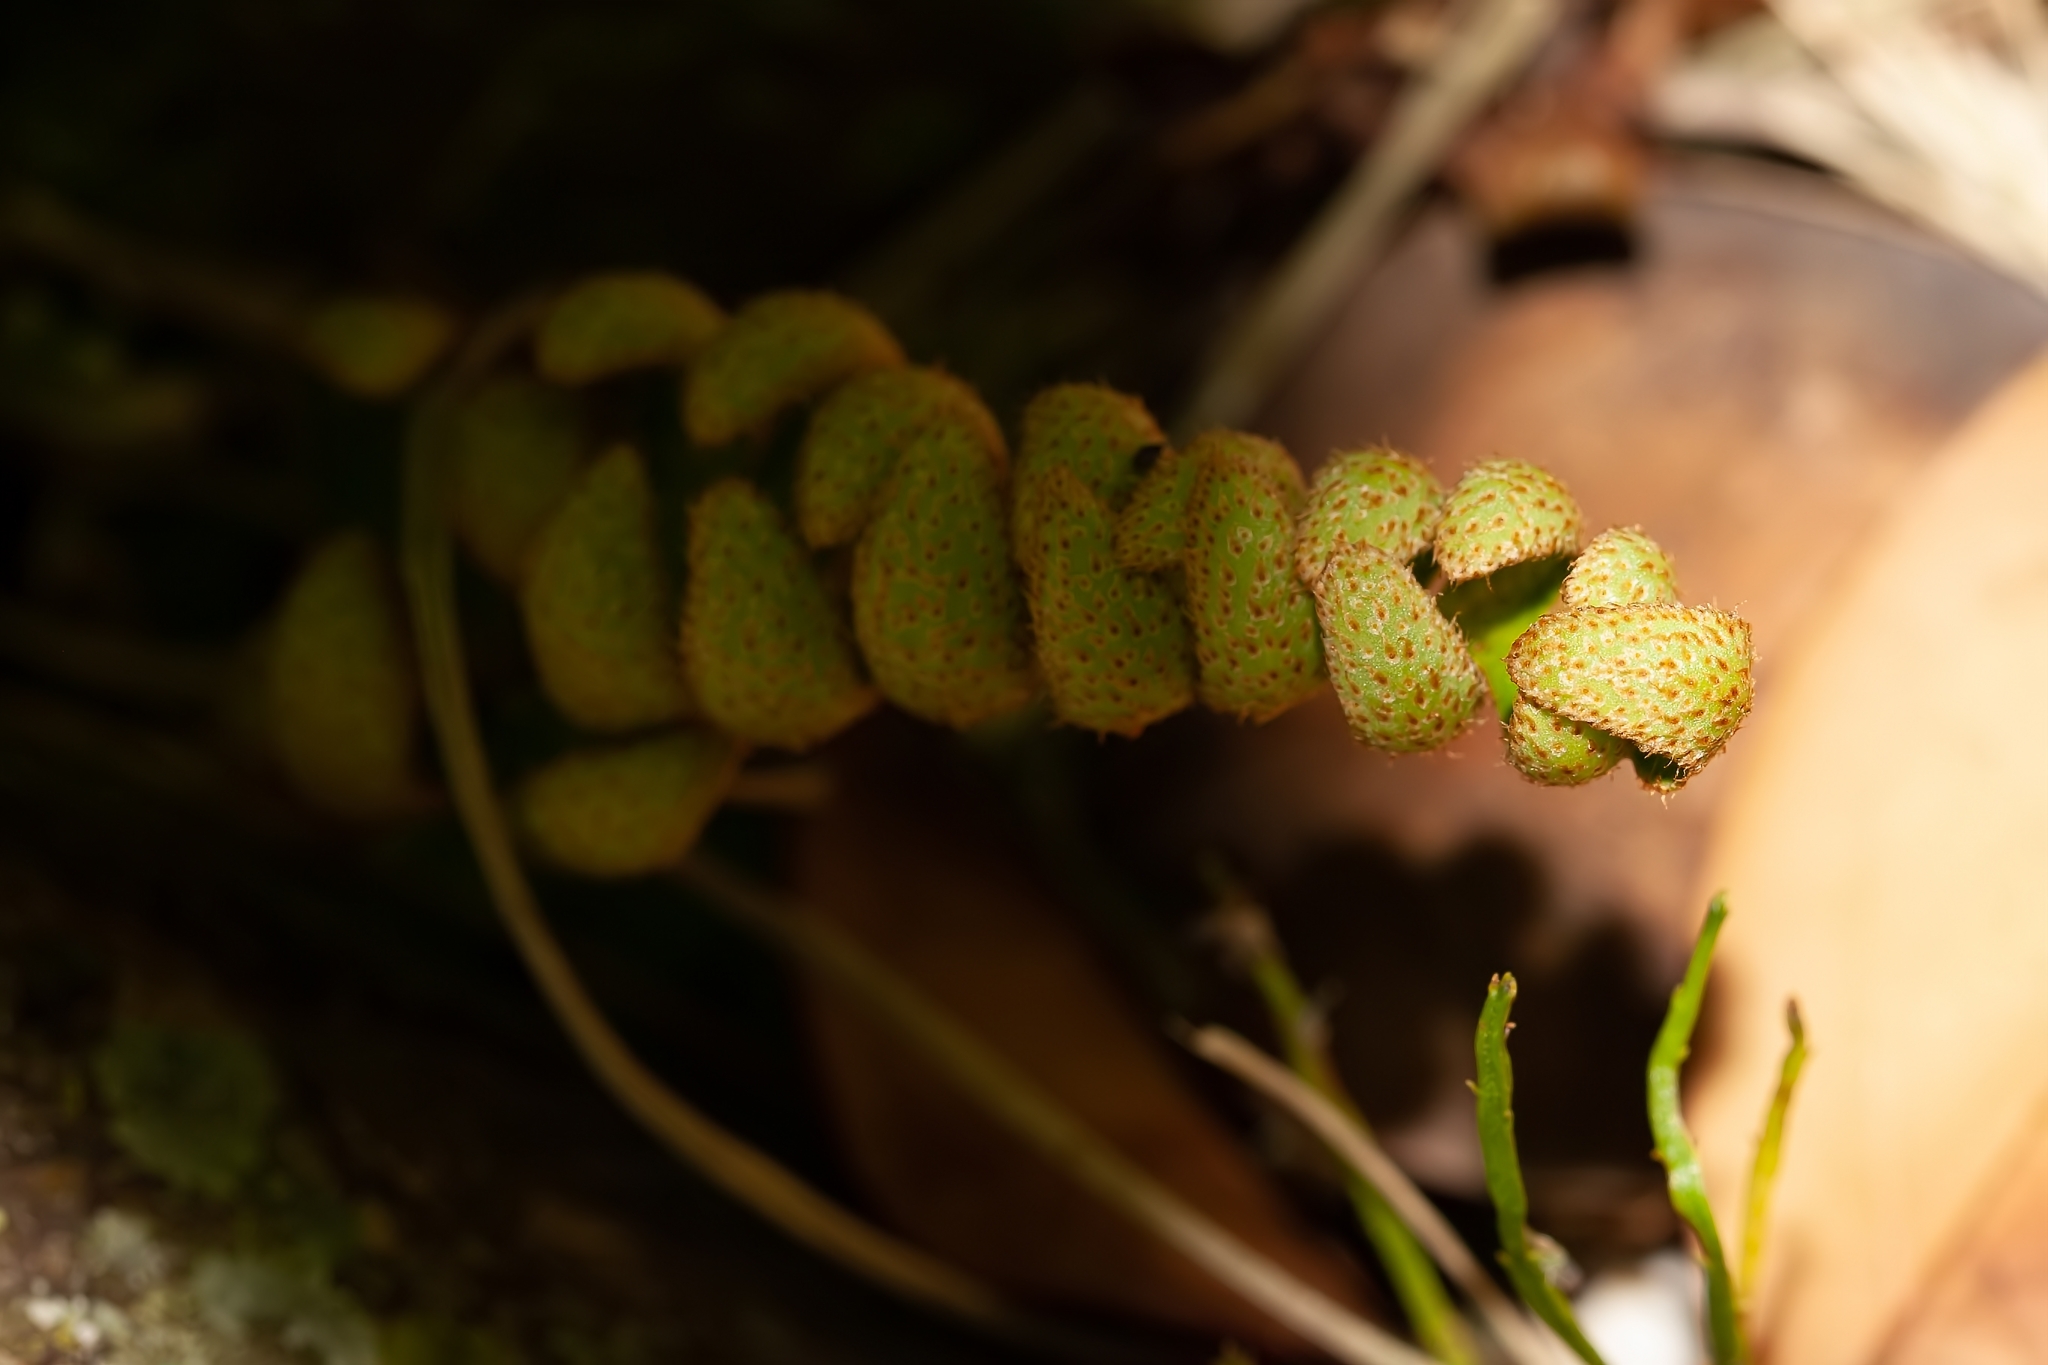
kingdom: Plantae
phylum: Tracheophyta
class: Polypodiopsida
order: Polypodiales
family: Polypodiaceae
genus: Pleopeltis
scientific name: Pleopeltis michauxiana
